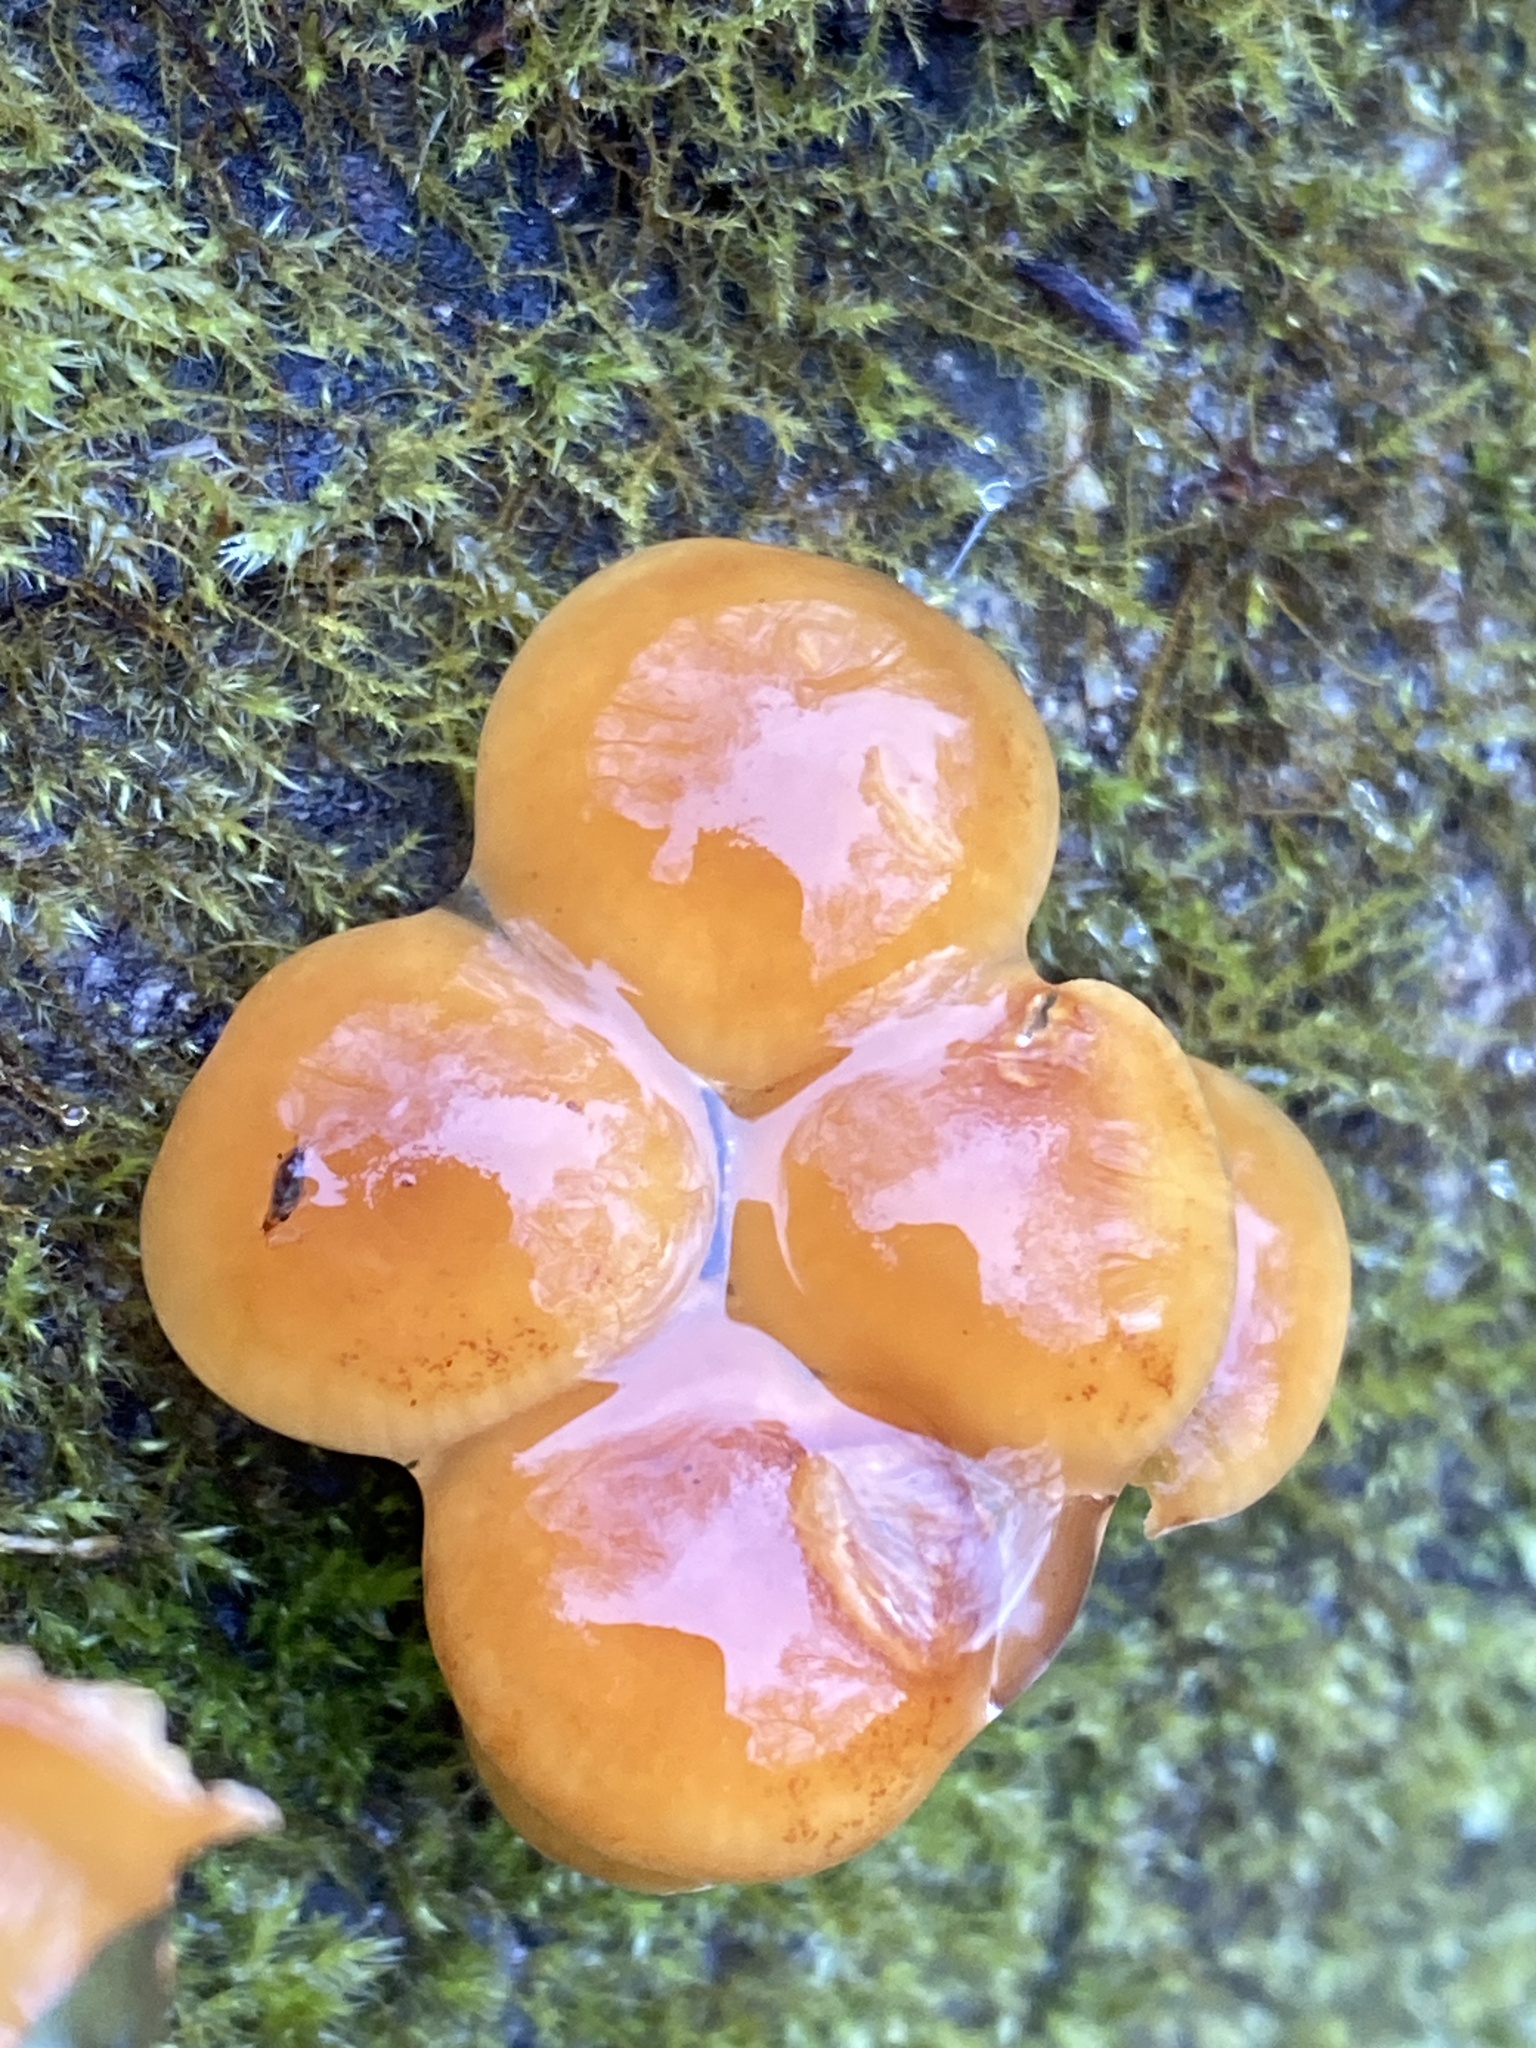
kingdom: Fungi
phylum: Basidiomycota
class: Agaricomycetes
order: Agaricales
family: Physalacriaceae
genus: Flammulina
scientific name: Flammulina
